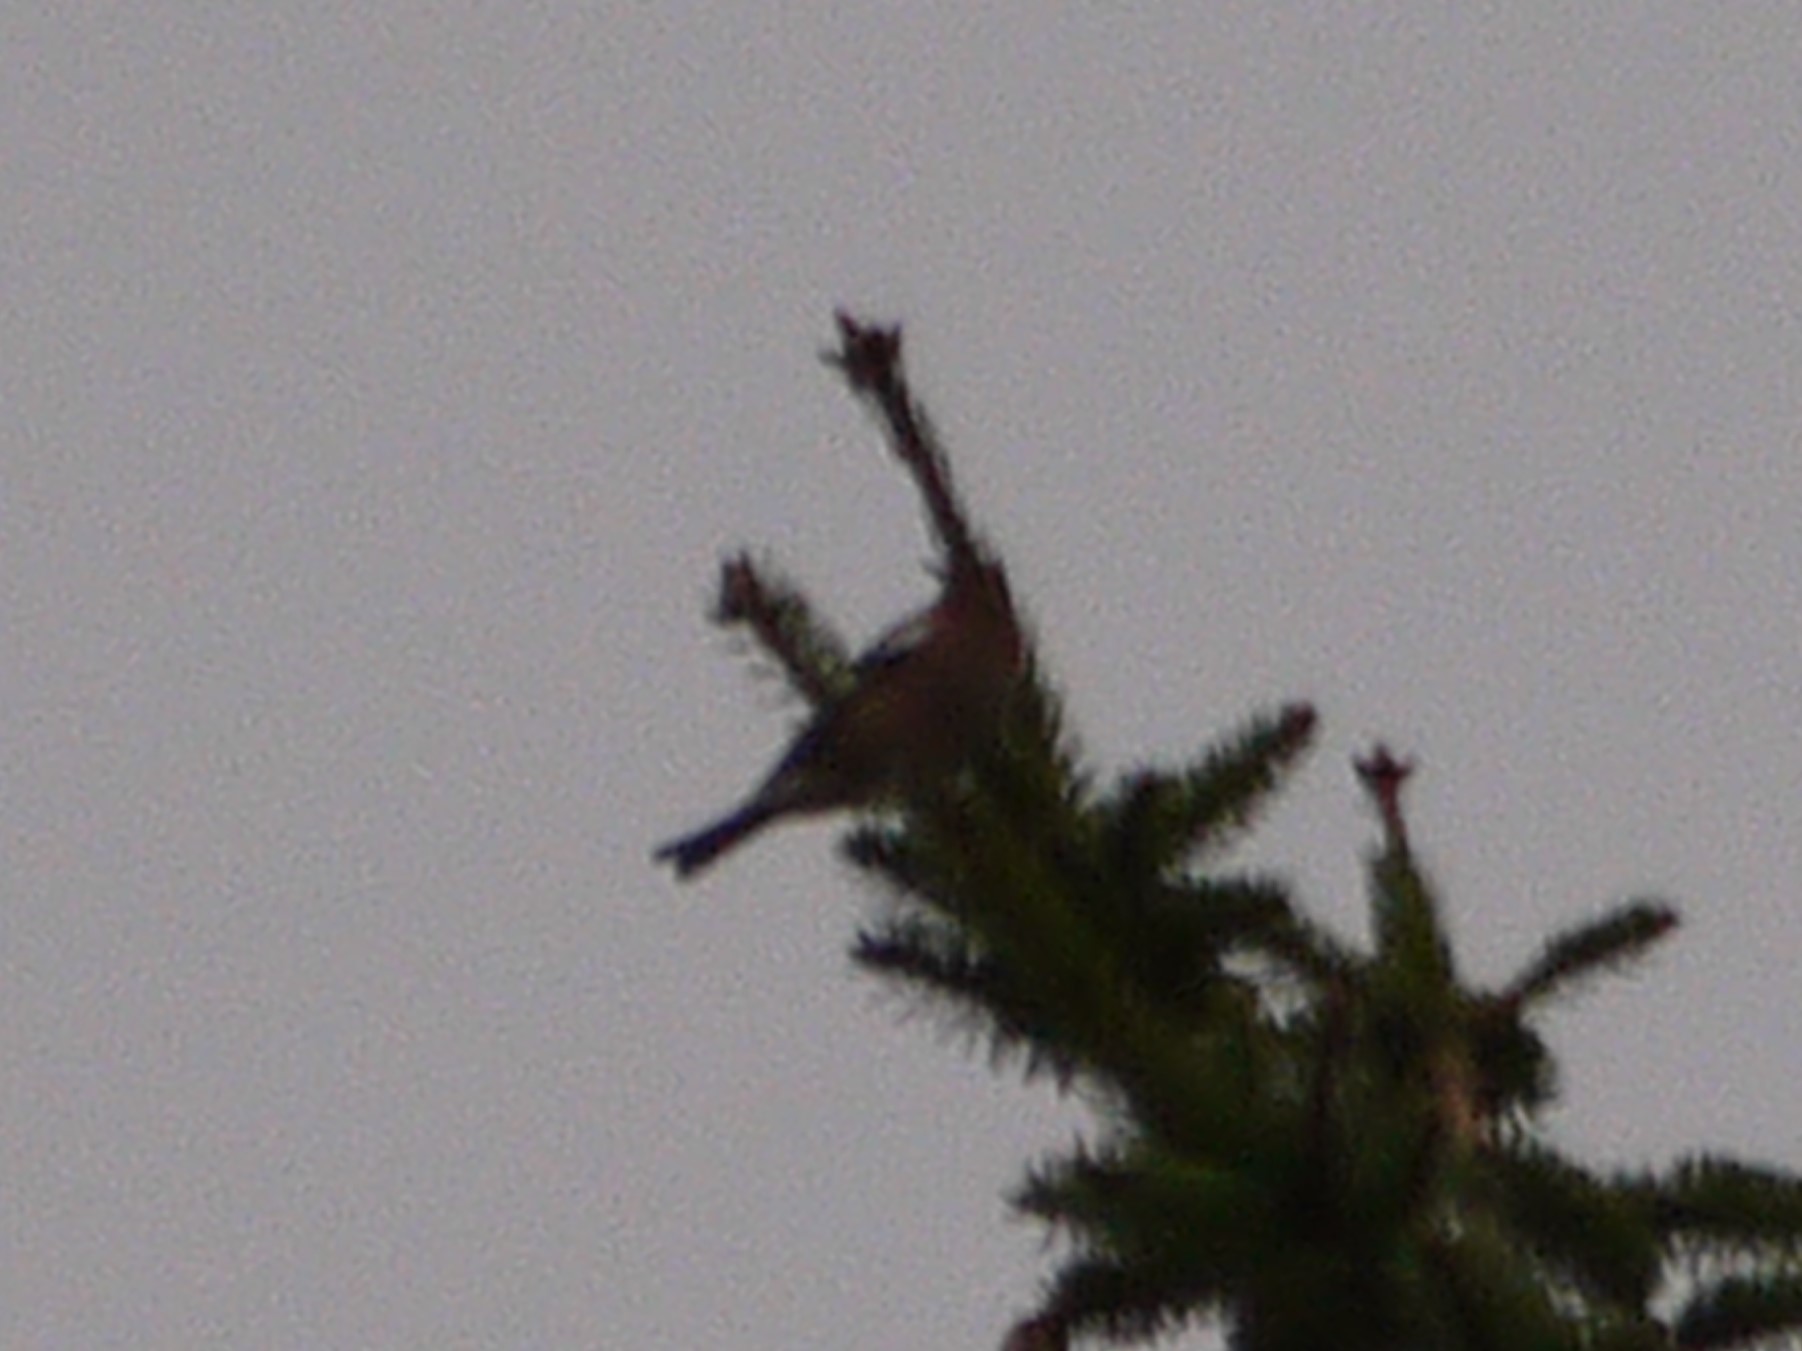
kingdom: Animalia
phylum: Chordata
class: Aves
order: Passeriformes
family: Fringillidae
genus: Fringilla
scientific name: Fringilla coelebs
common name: Common chaffinch
